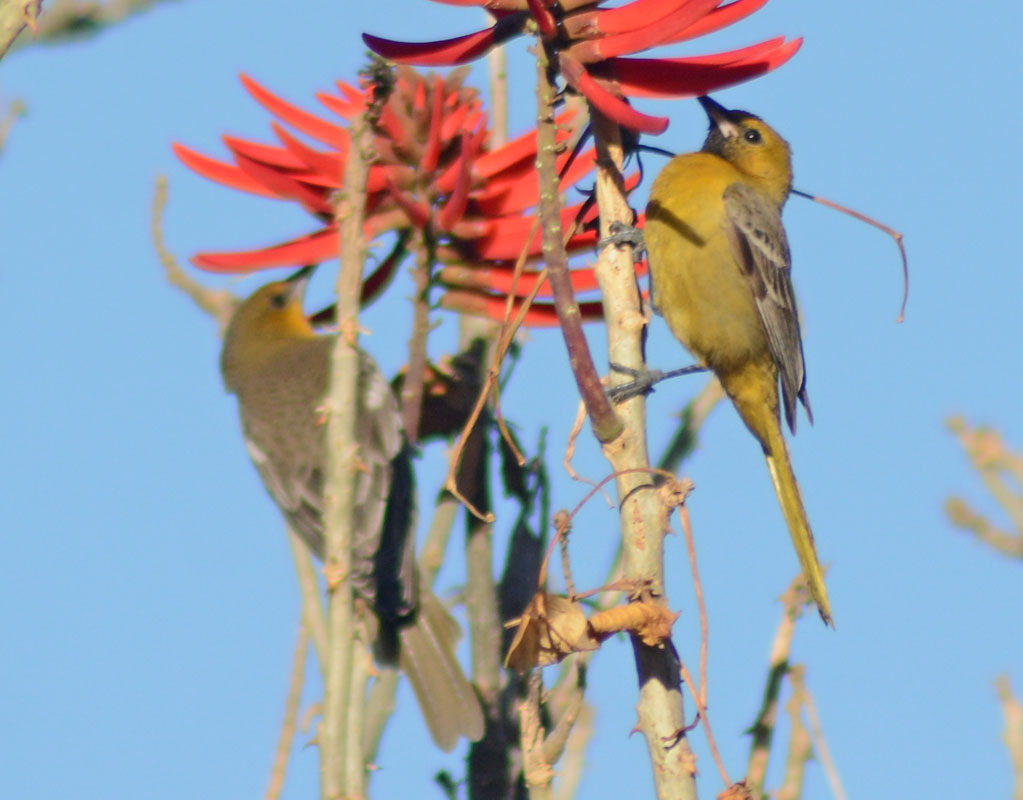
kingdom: Animalia
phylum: Chordata
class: Aves
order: Passeriformes
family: Icteridae
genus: Icterus
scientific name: Icterus cucullatus
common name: Hooded oriole
